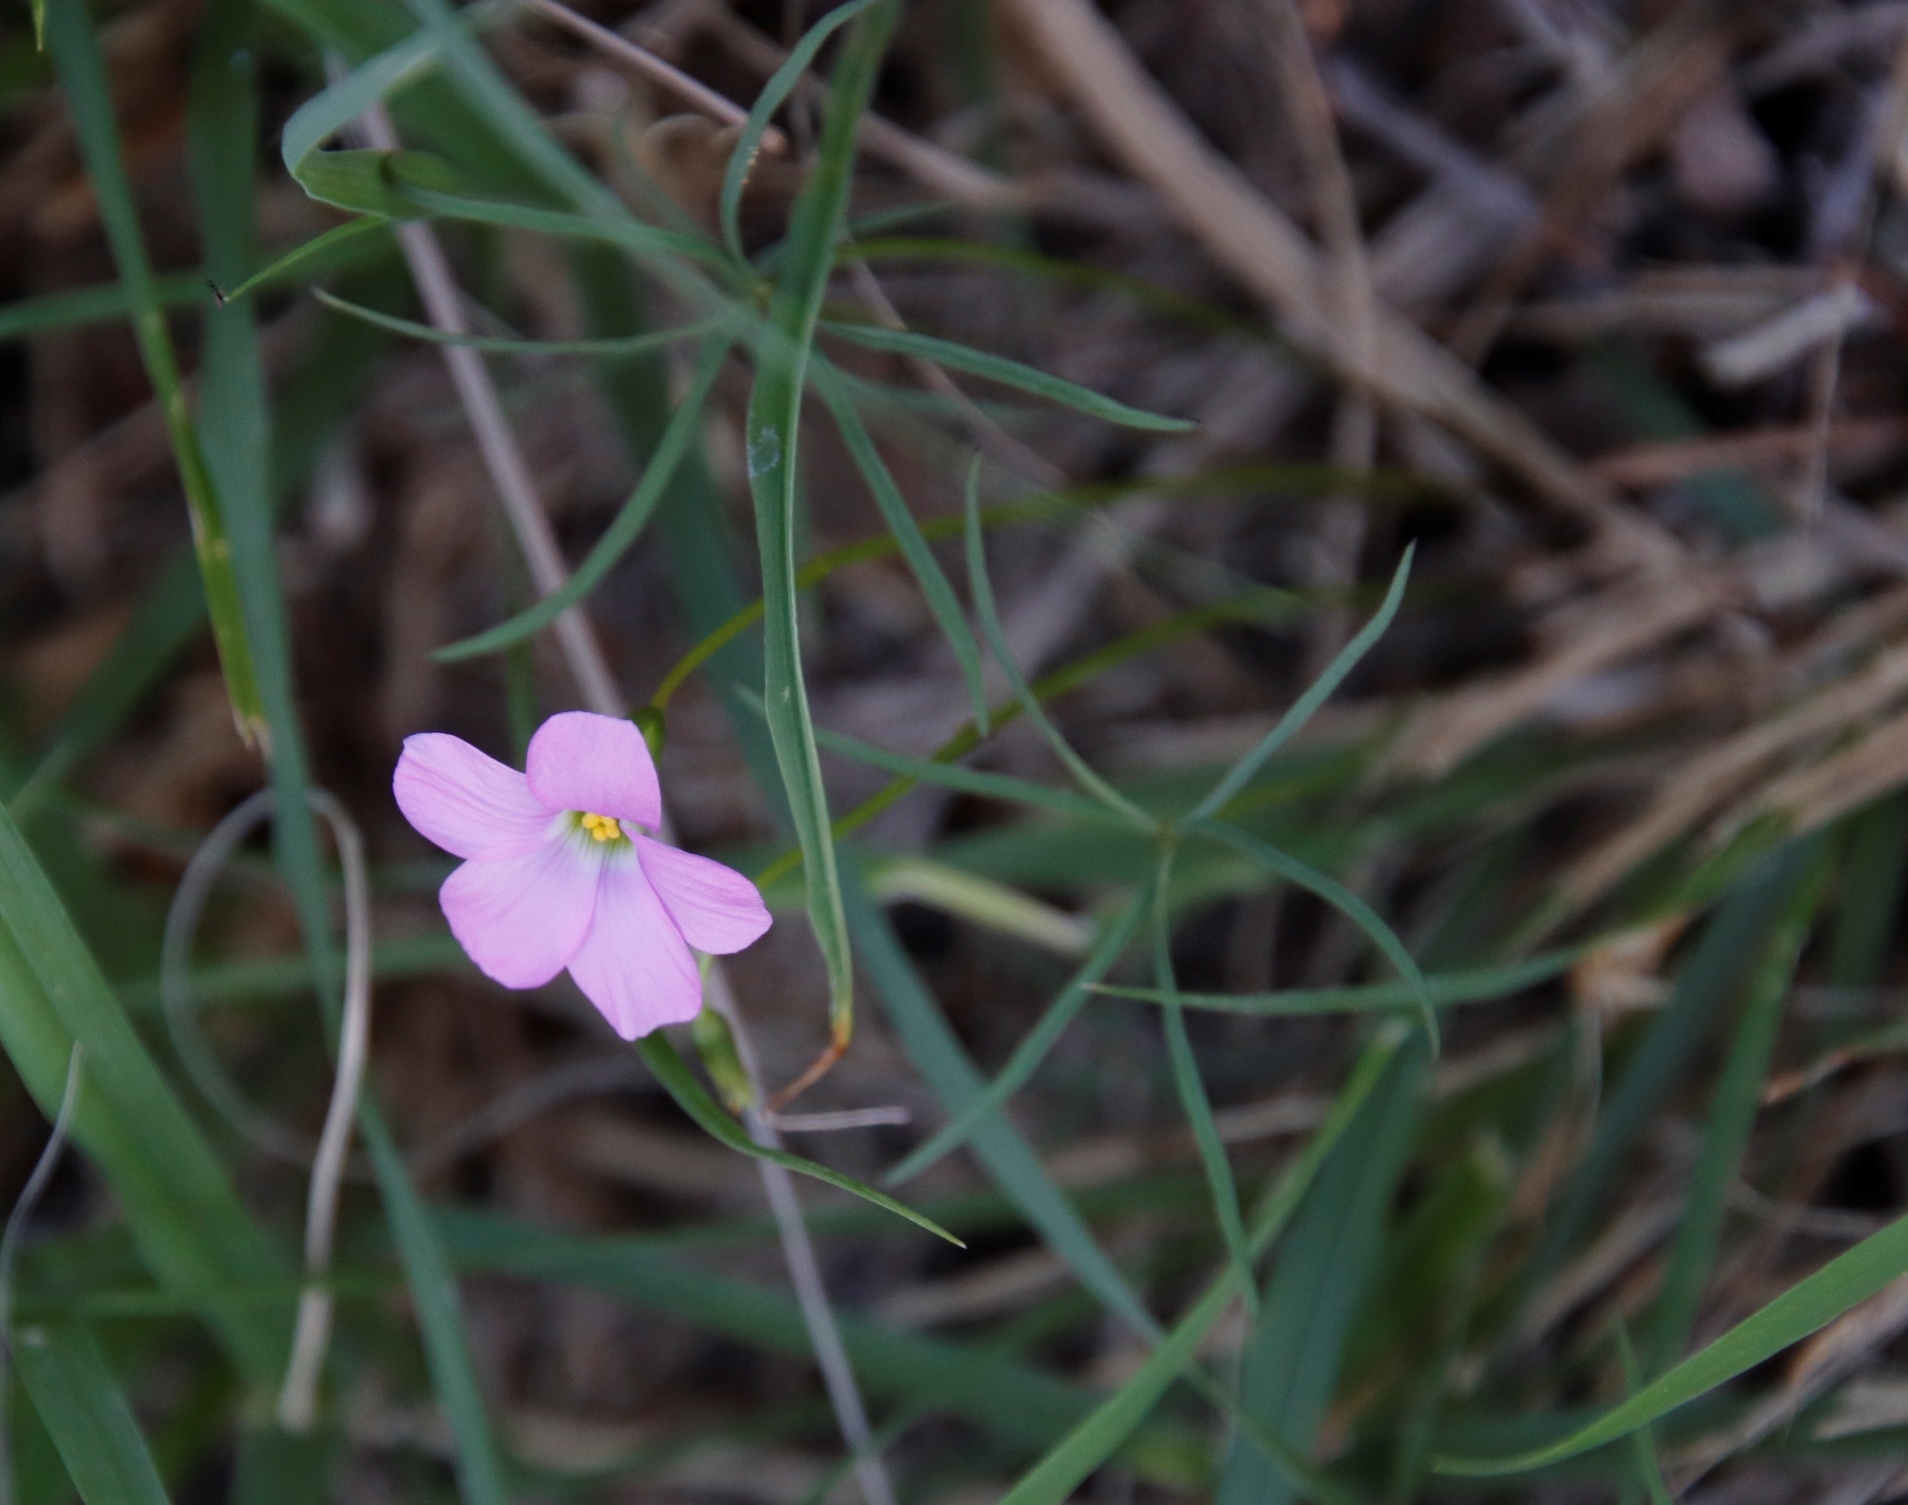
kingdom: Plantae
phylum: Tracheophyta
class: Magnoliopsida
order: Oxalidales
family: Oxalidaceae
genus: Oxalis
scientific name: Oxalis smithiana
